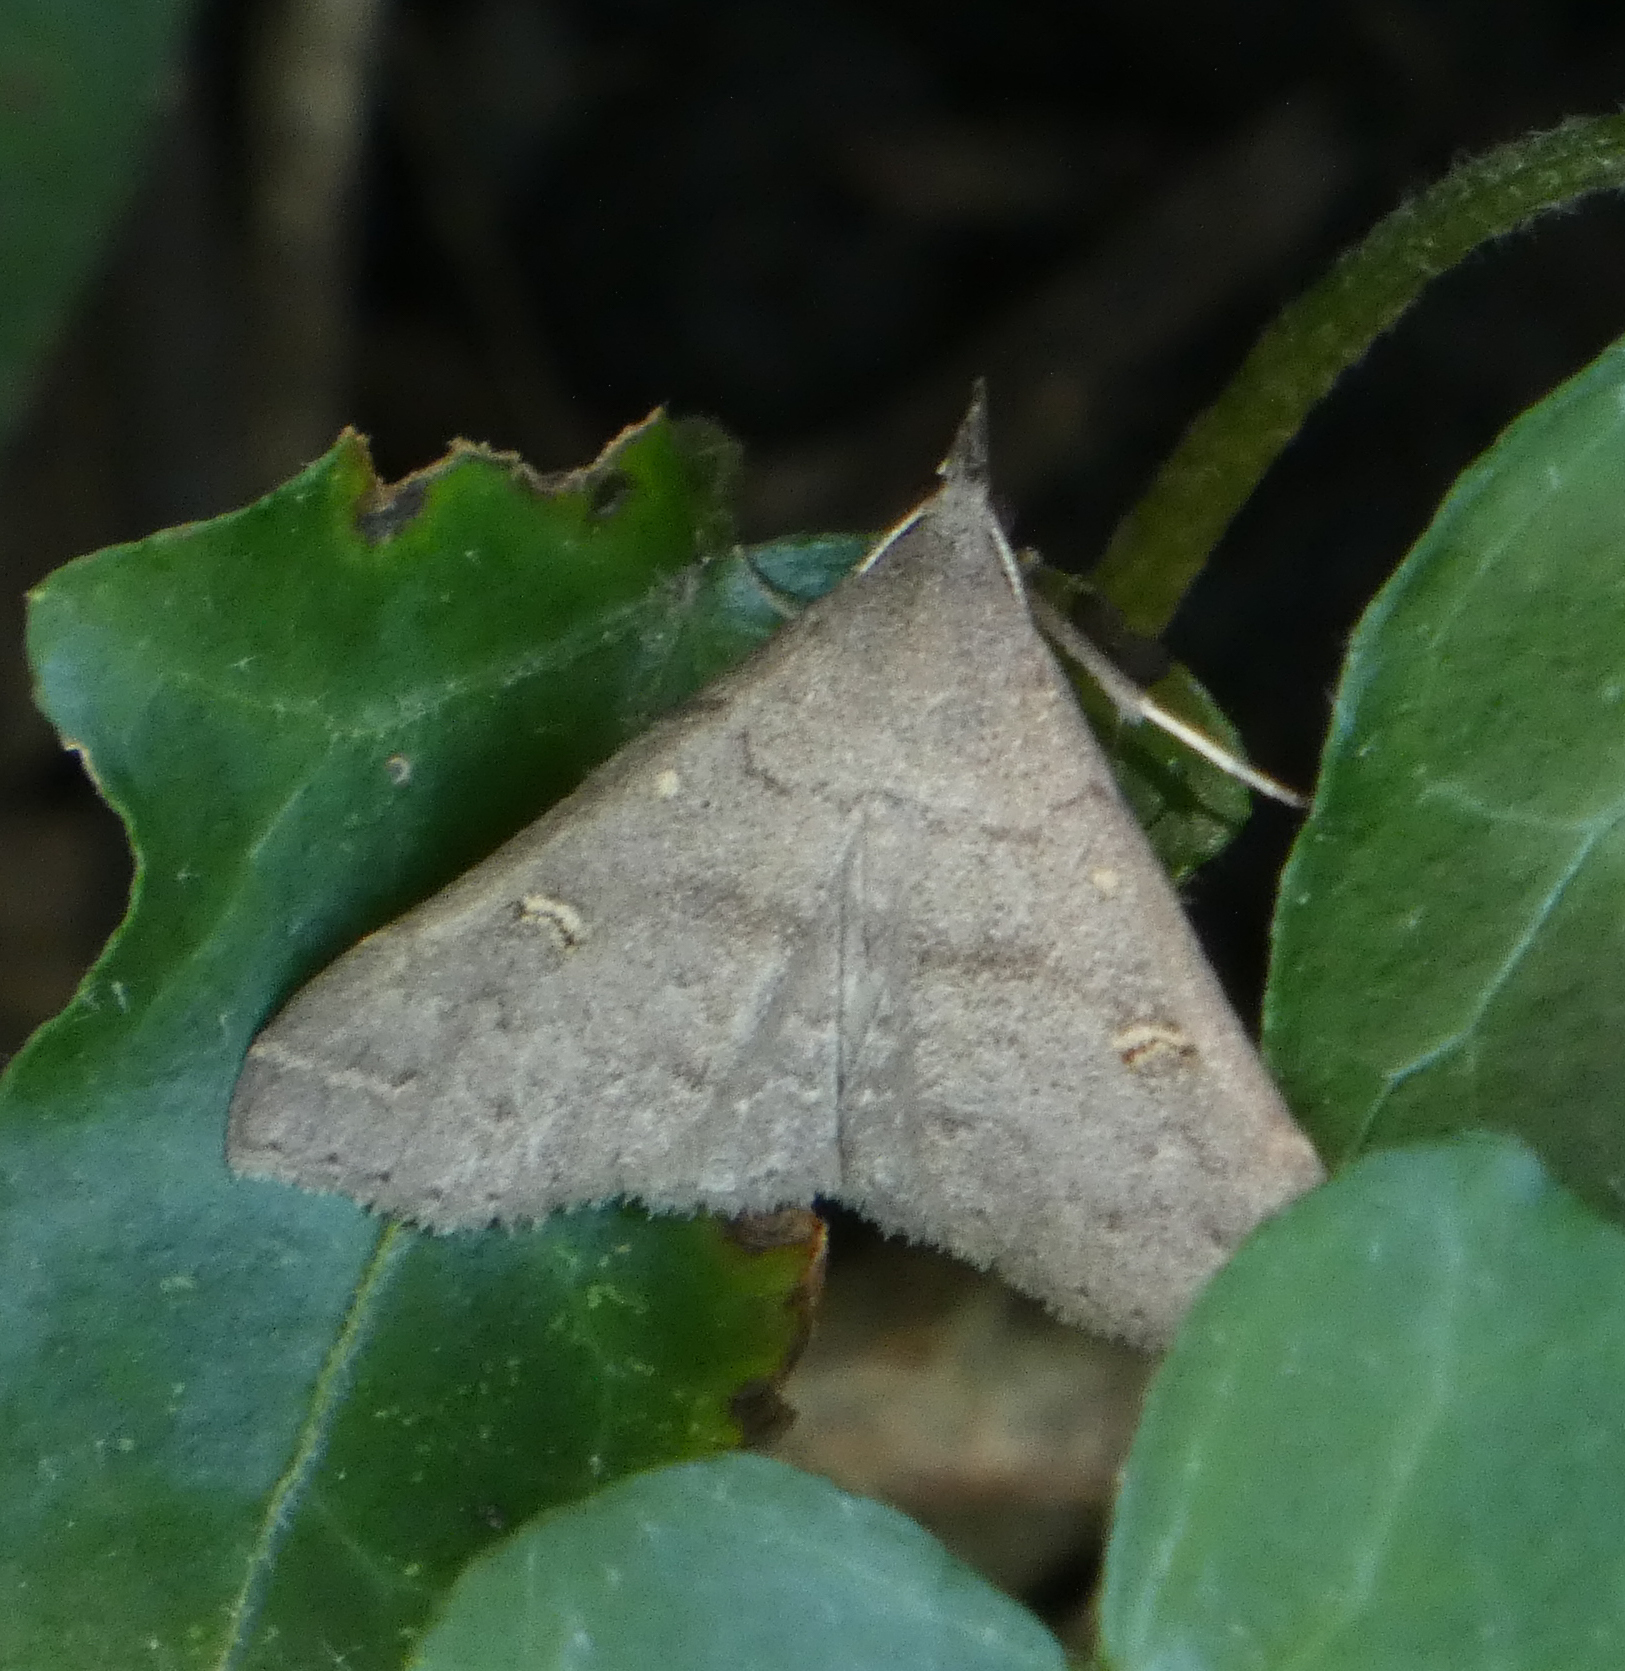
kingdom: Animalia
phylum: Arthropoda
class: Insecta
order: Lepidoptera
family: Erebidae
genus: Renia
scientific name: Renia adspergillus
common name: Speckled renia moth
